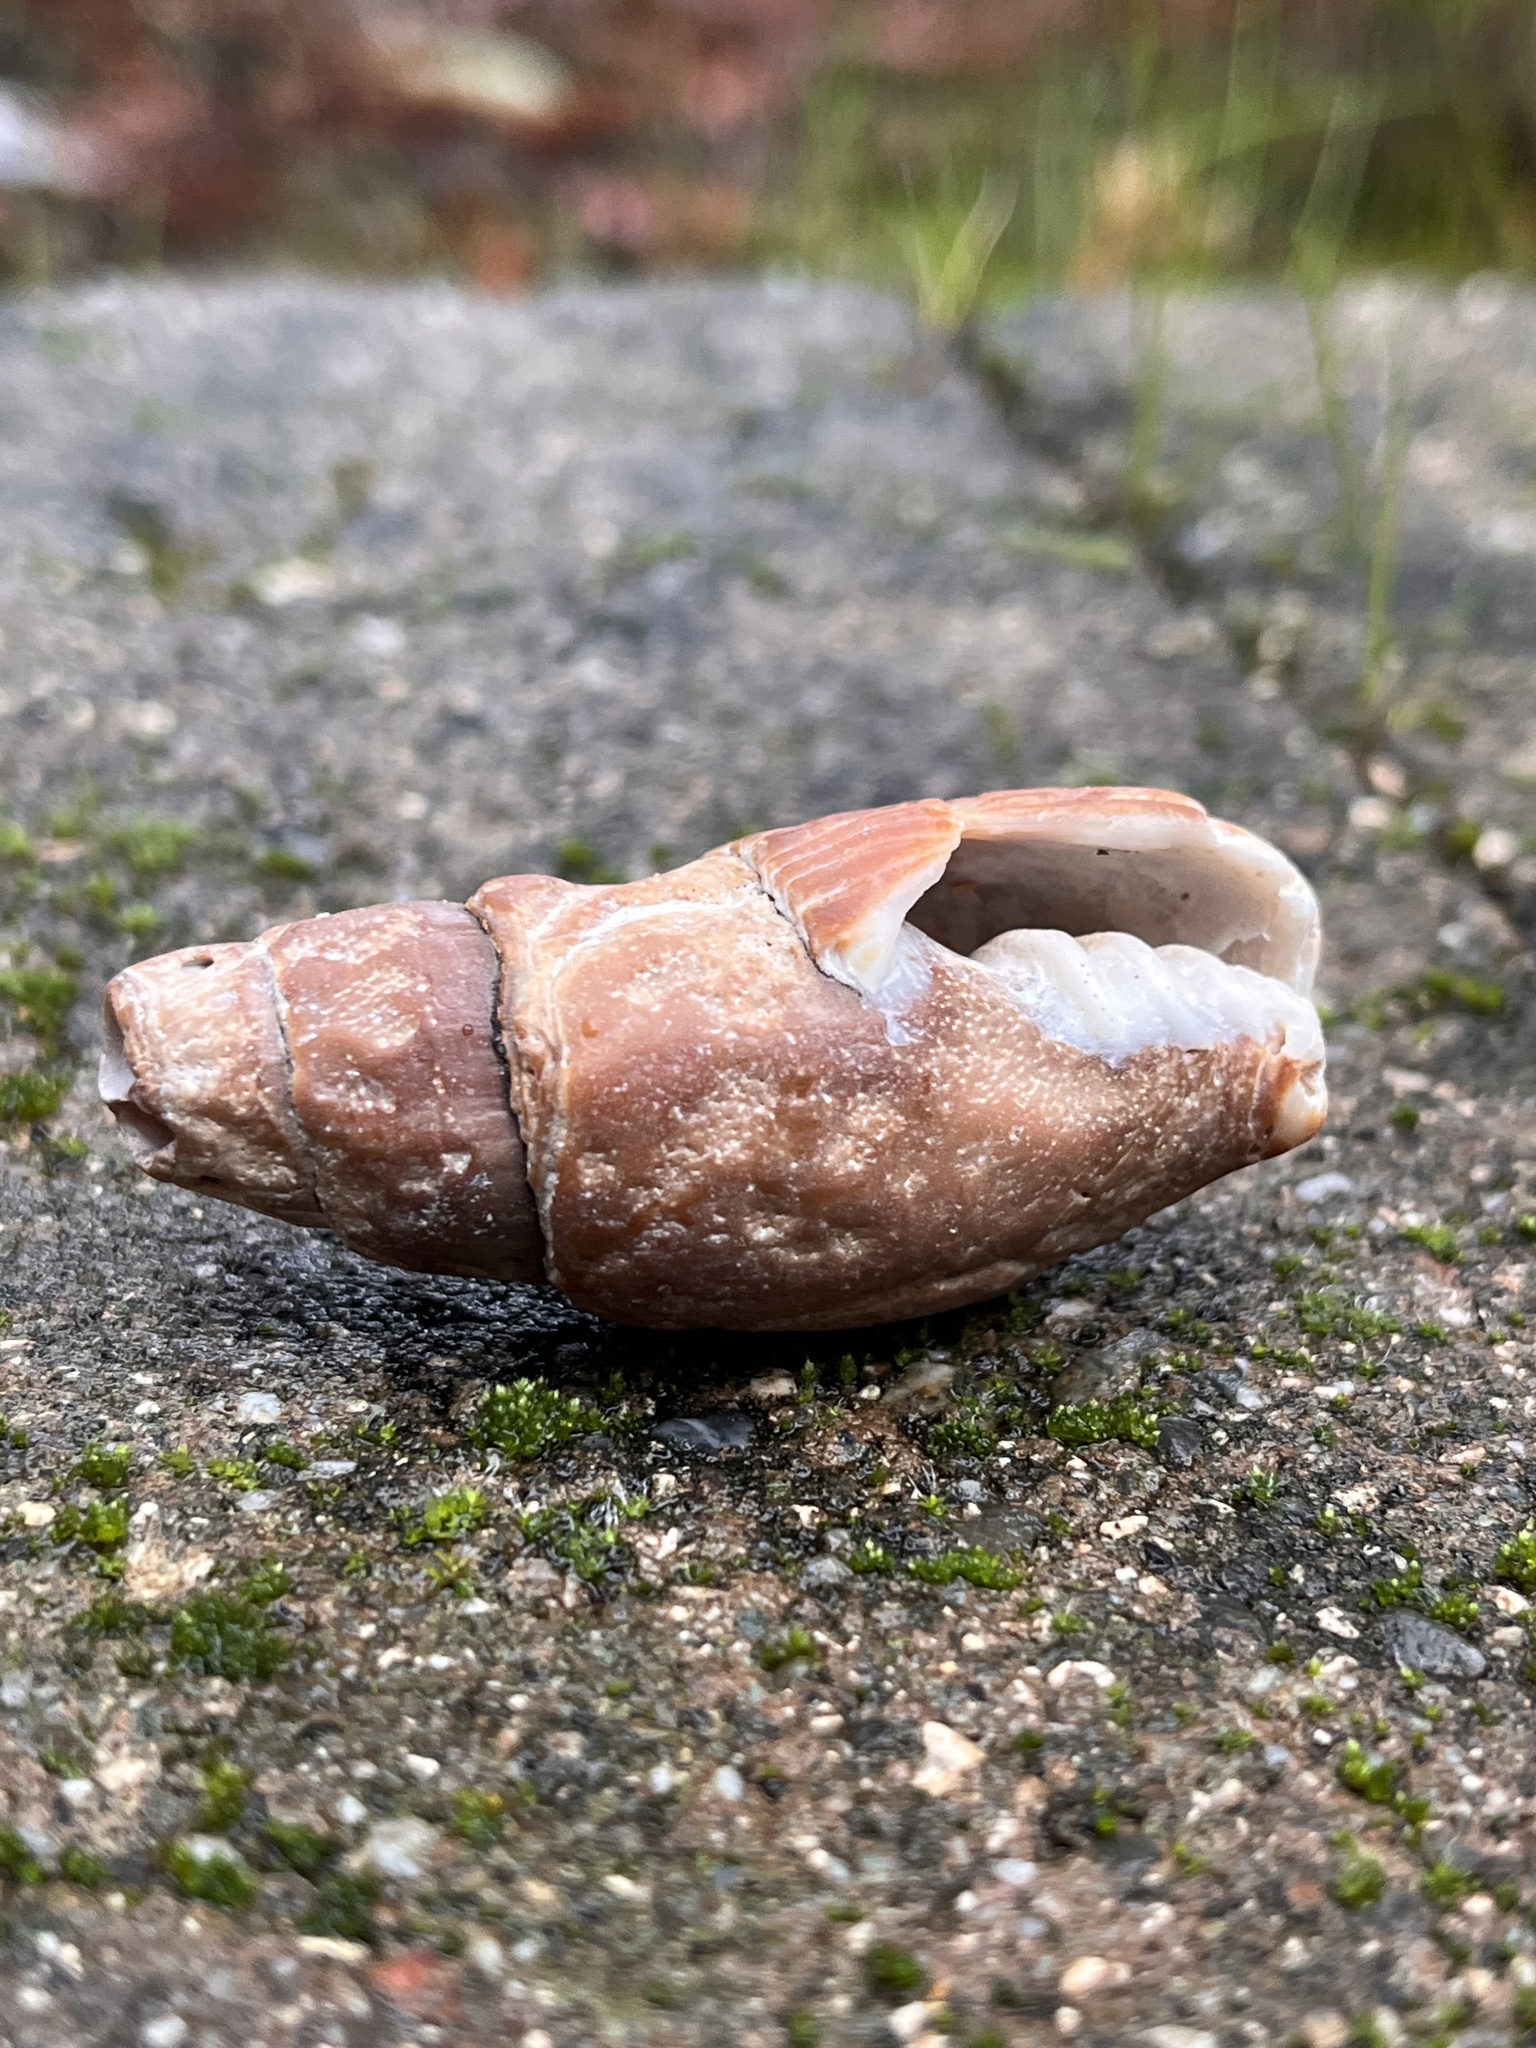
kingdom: Animalia
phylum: Mollusca
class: Gastropoda
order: Neogastropoda
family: Mitridae
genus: Atrimitra
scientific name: Atrimitra idae
